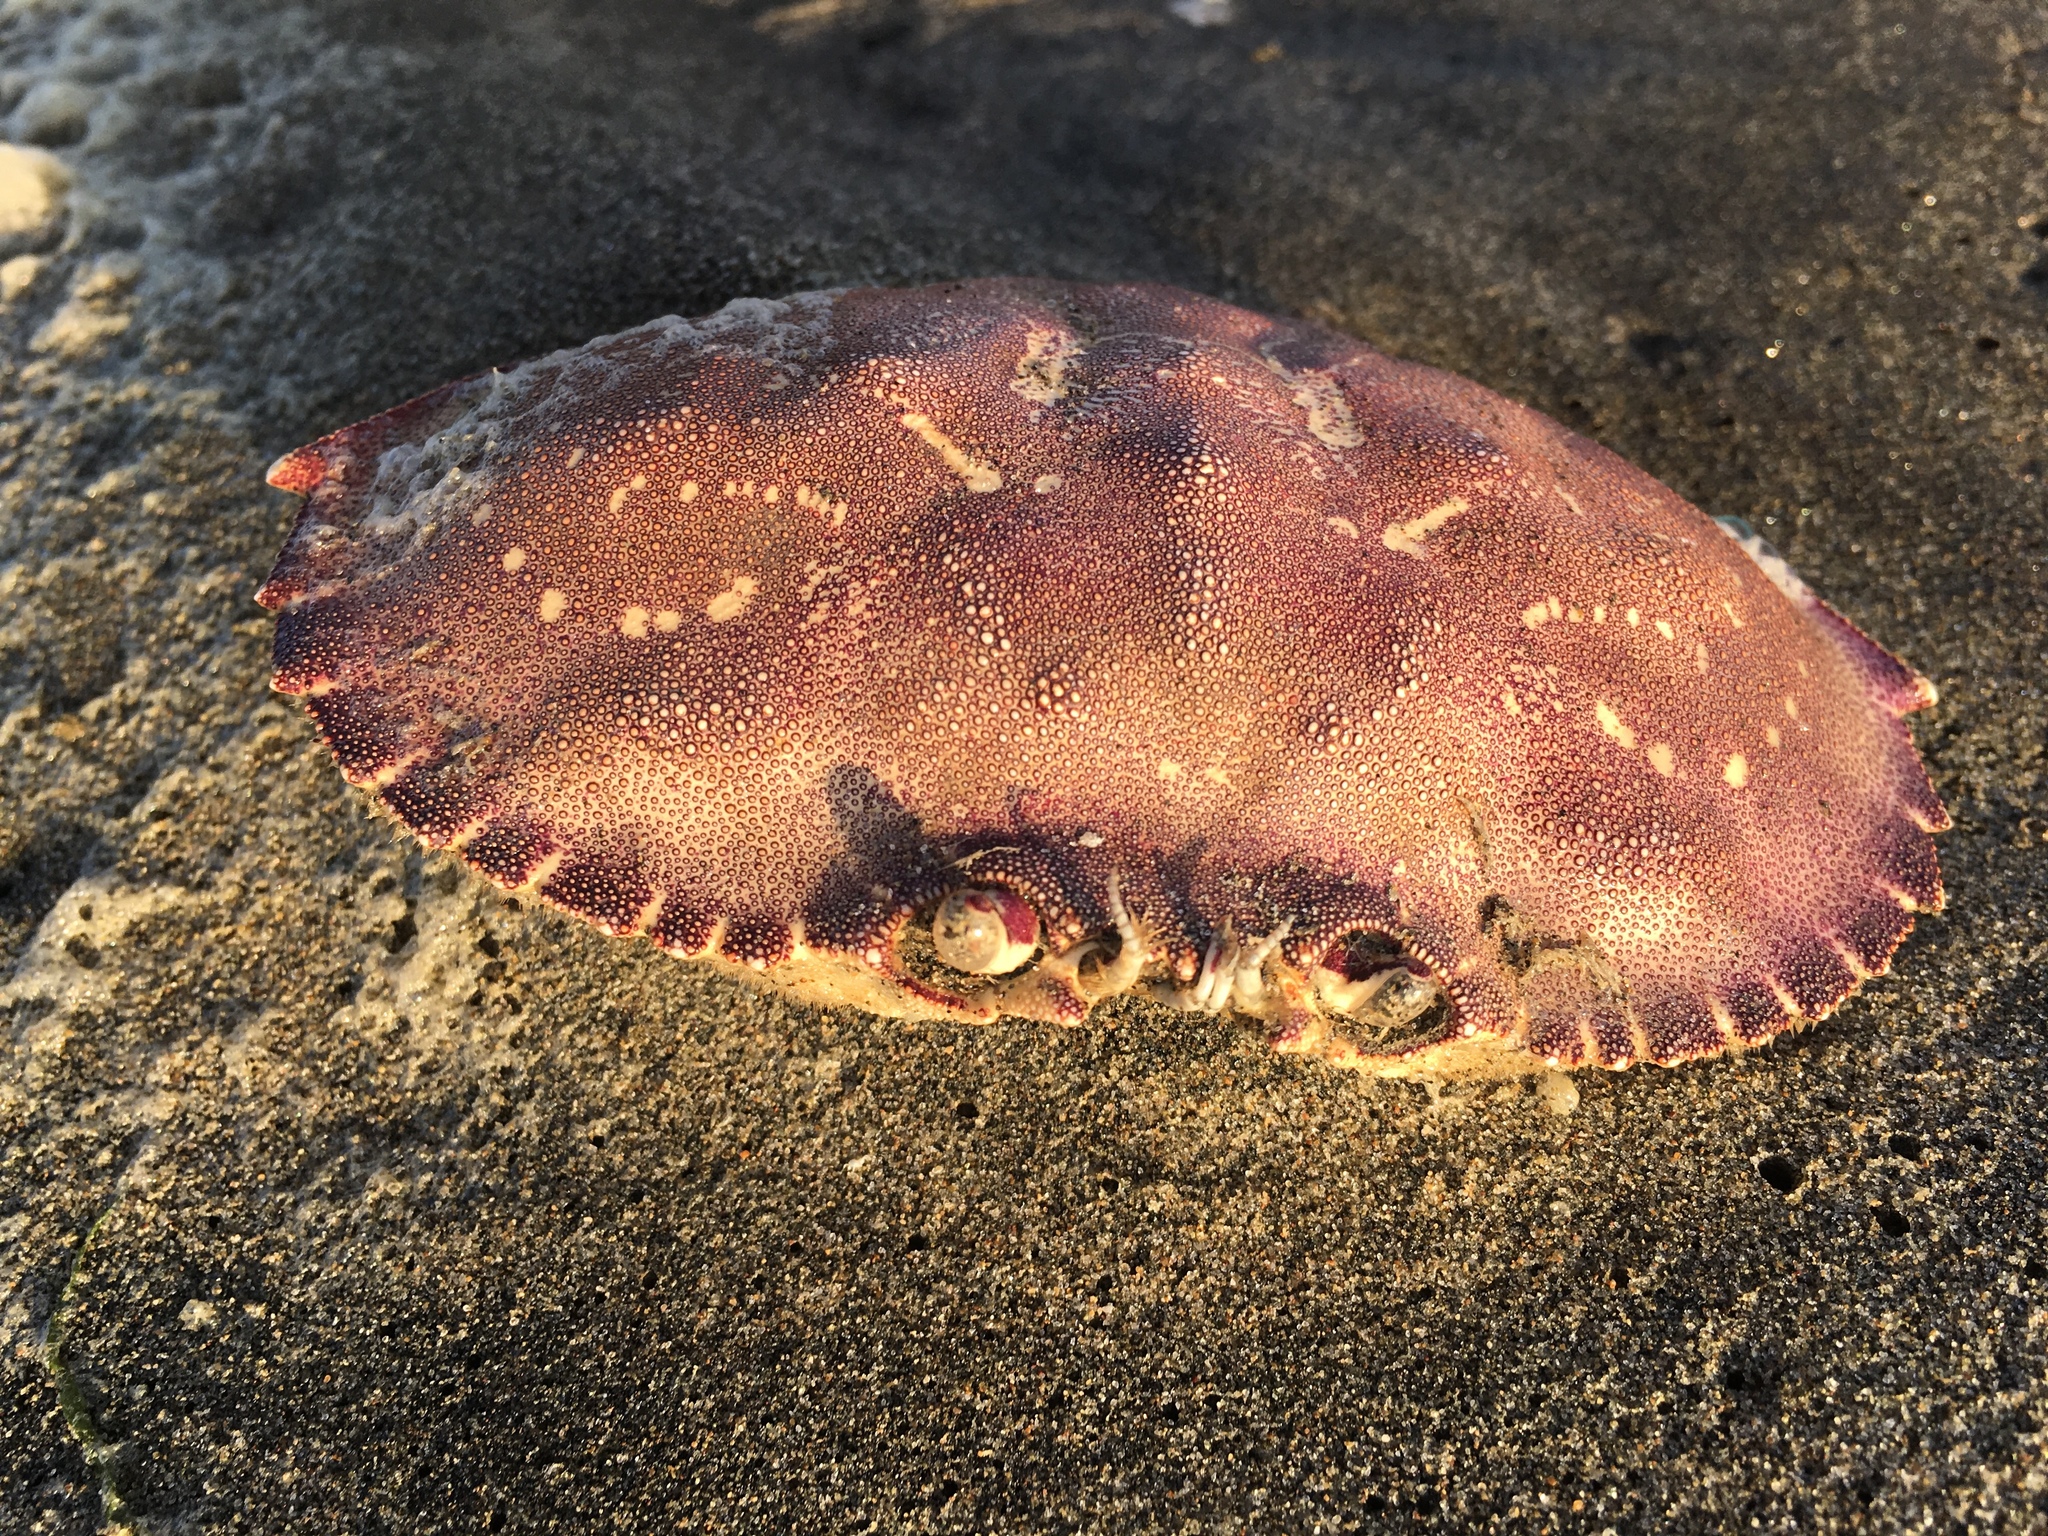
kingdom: Animalia
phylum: Arthropoda
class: Malacostraca
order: Decapoda
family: Cancridae
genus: Metacarcinus
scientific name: Metacarcinus magister
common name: Californian crab
